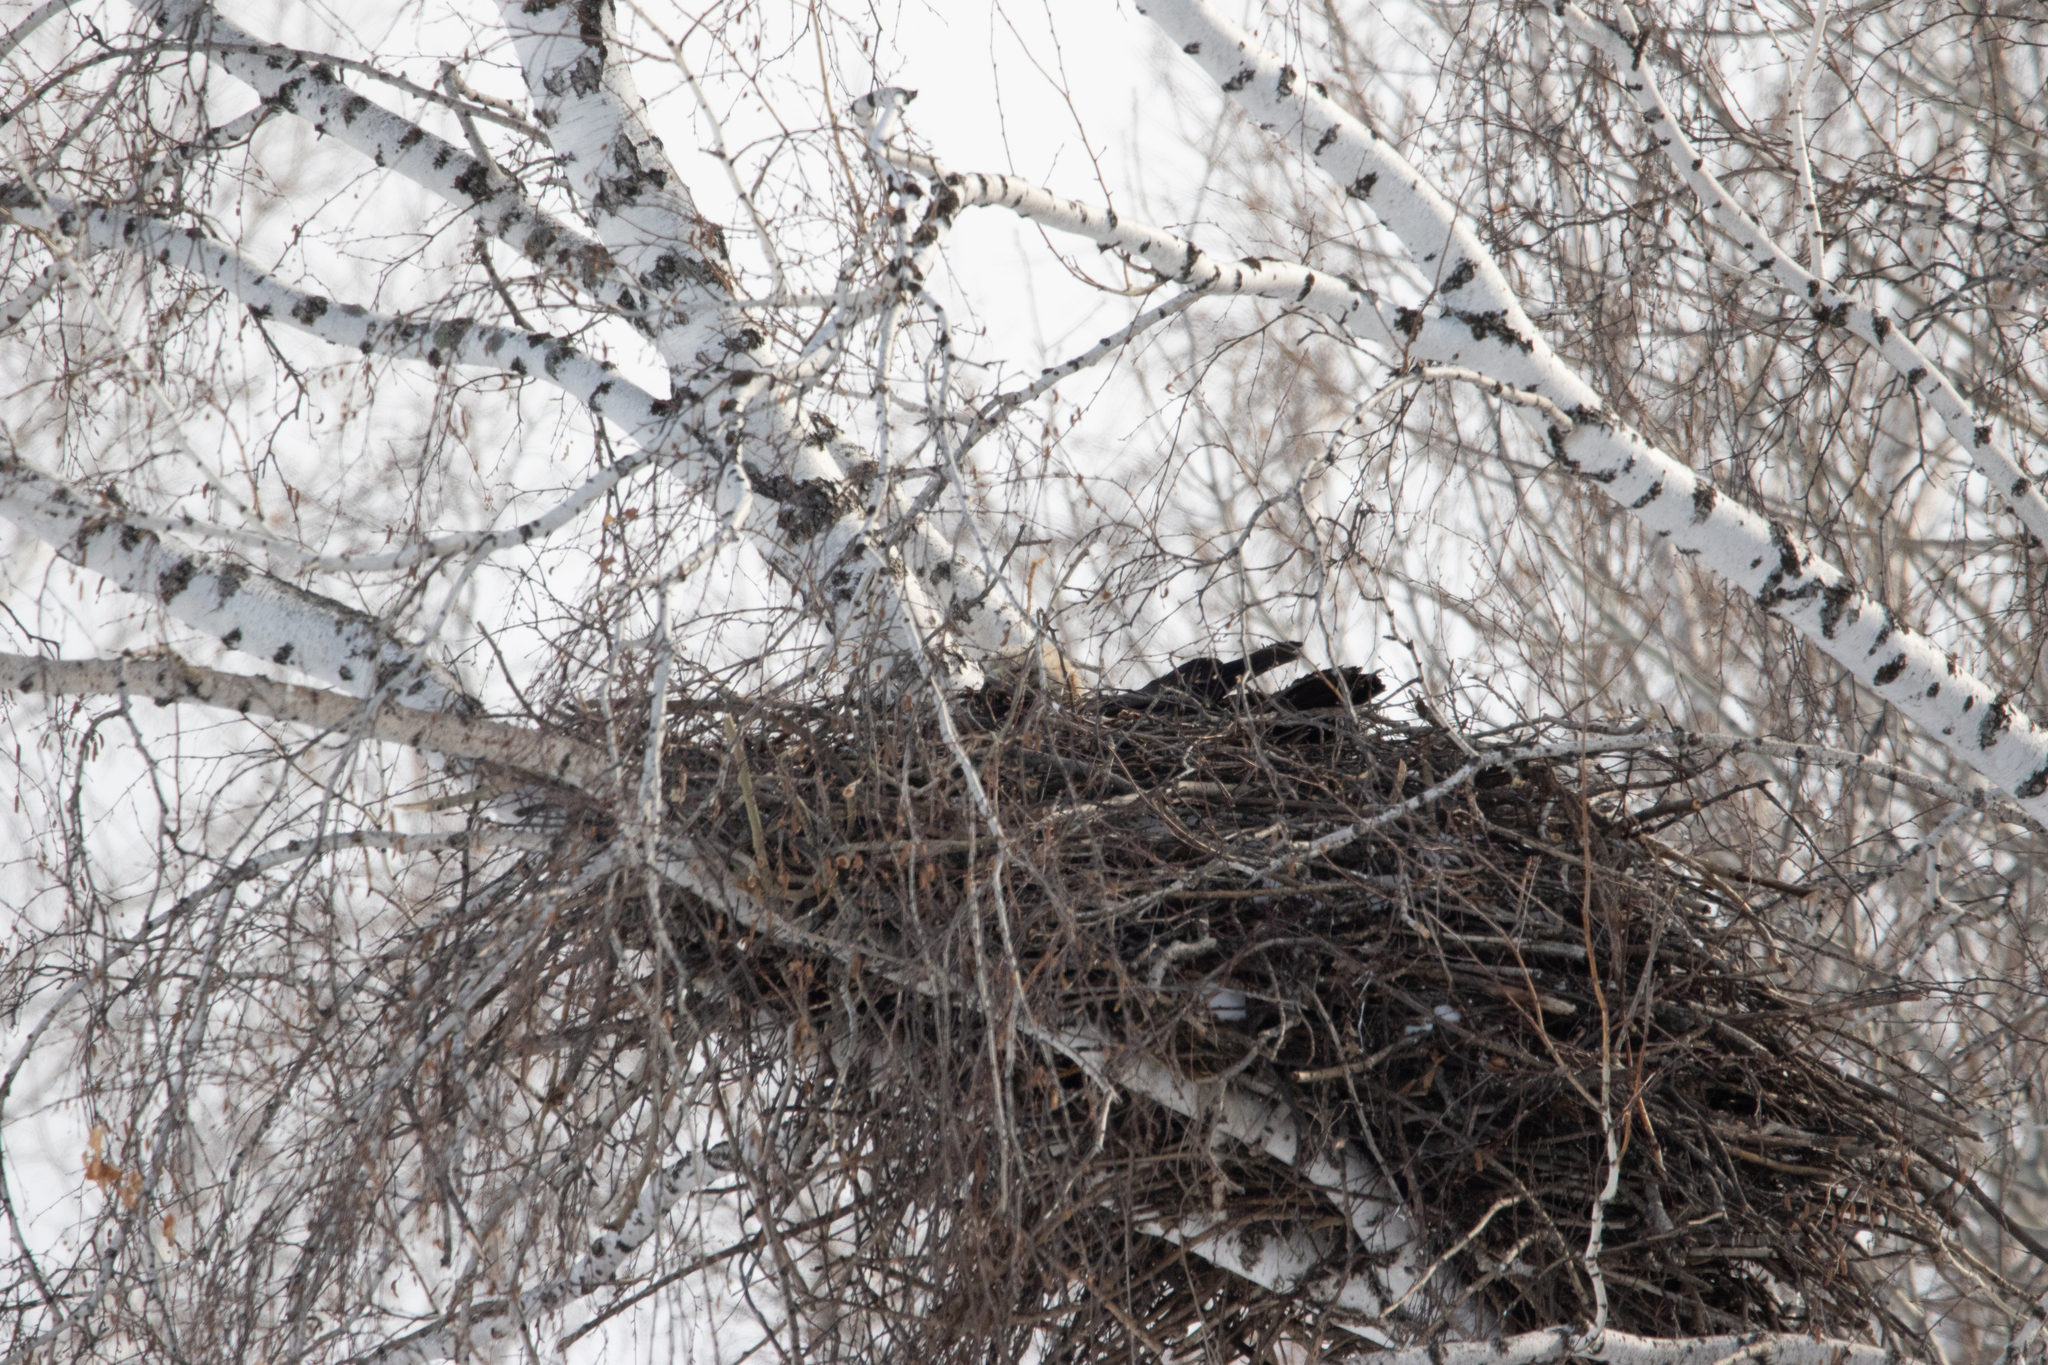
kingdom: Animalia
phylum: Chordata
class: Aves
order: Accipitriformes
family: Accipitridae
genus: Aquila
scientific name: Aquila heliaca
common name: Eastern imperial eagle
